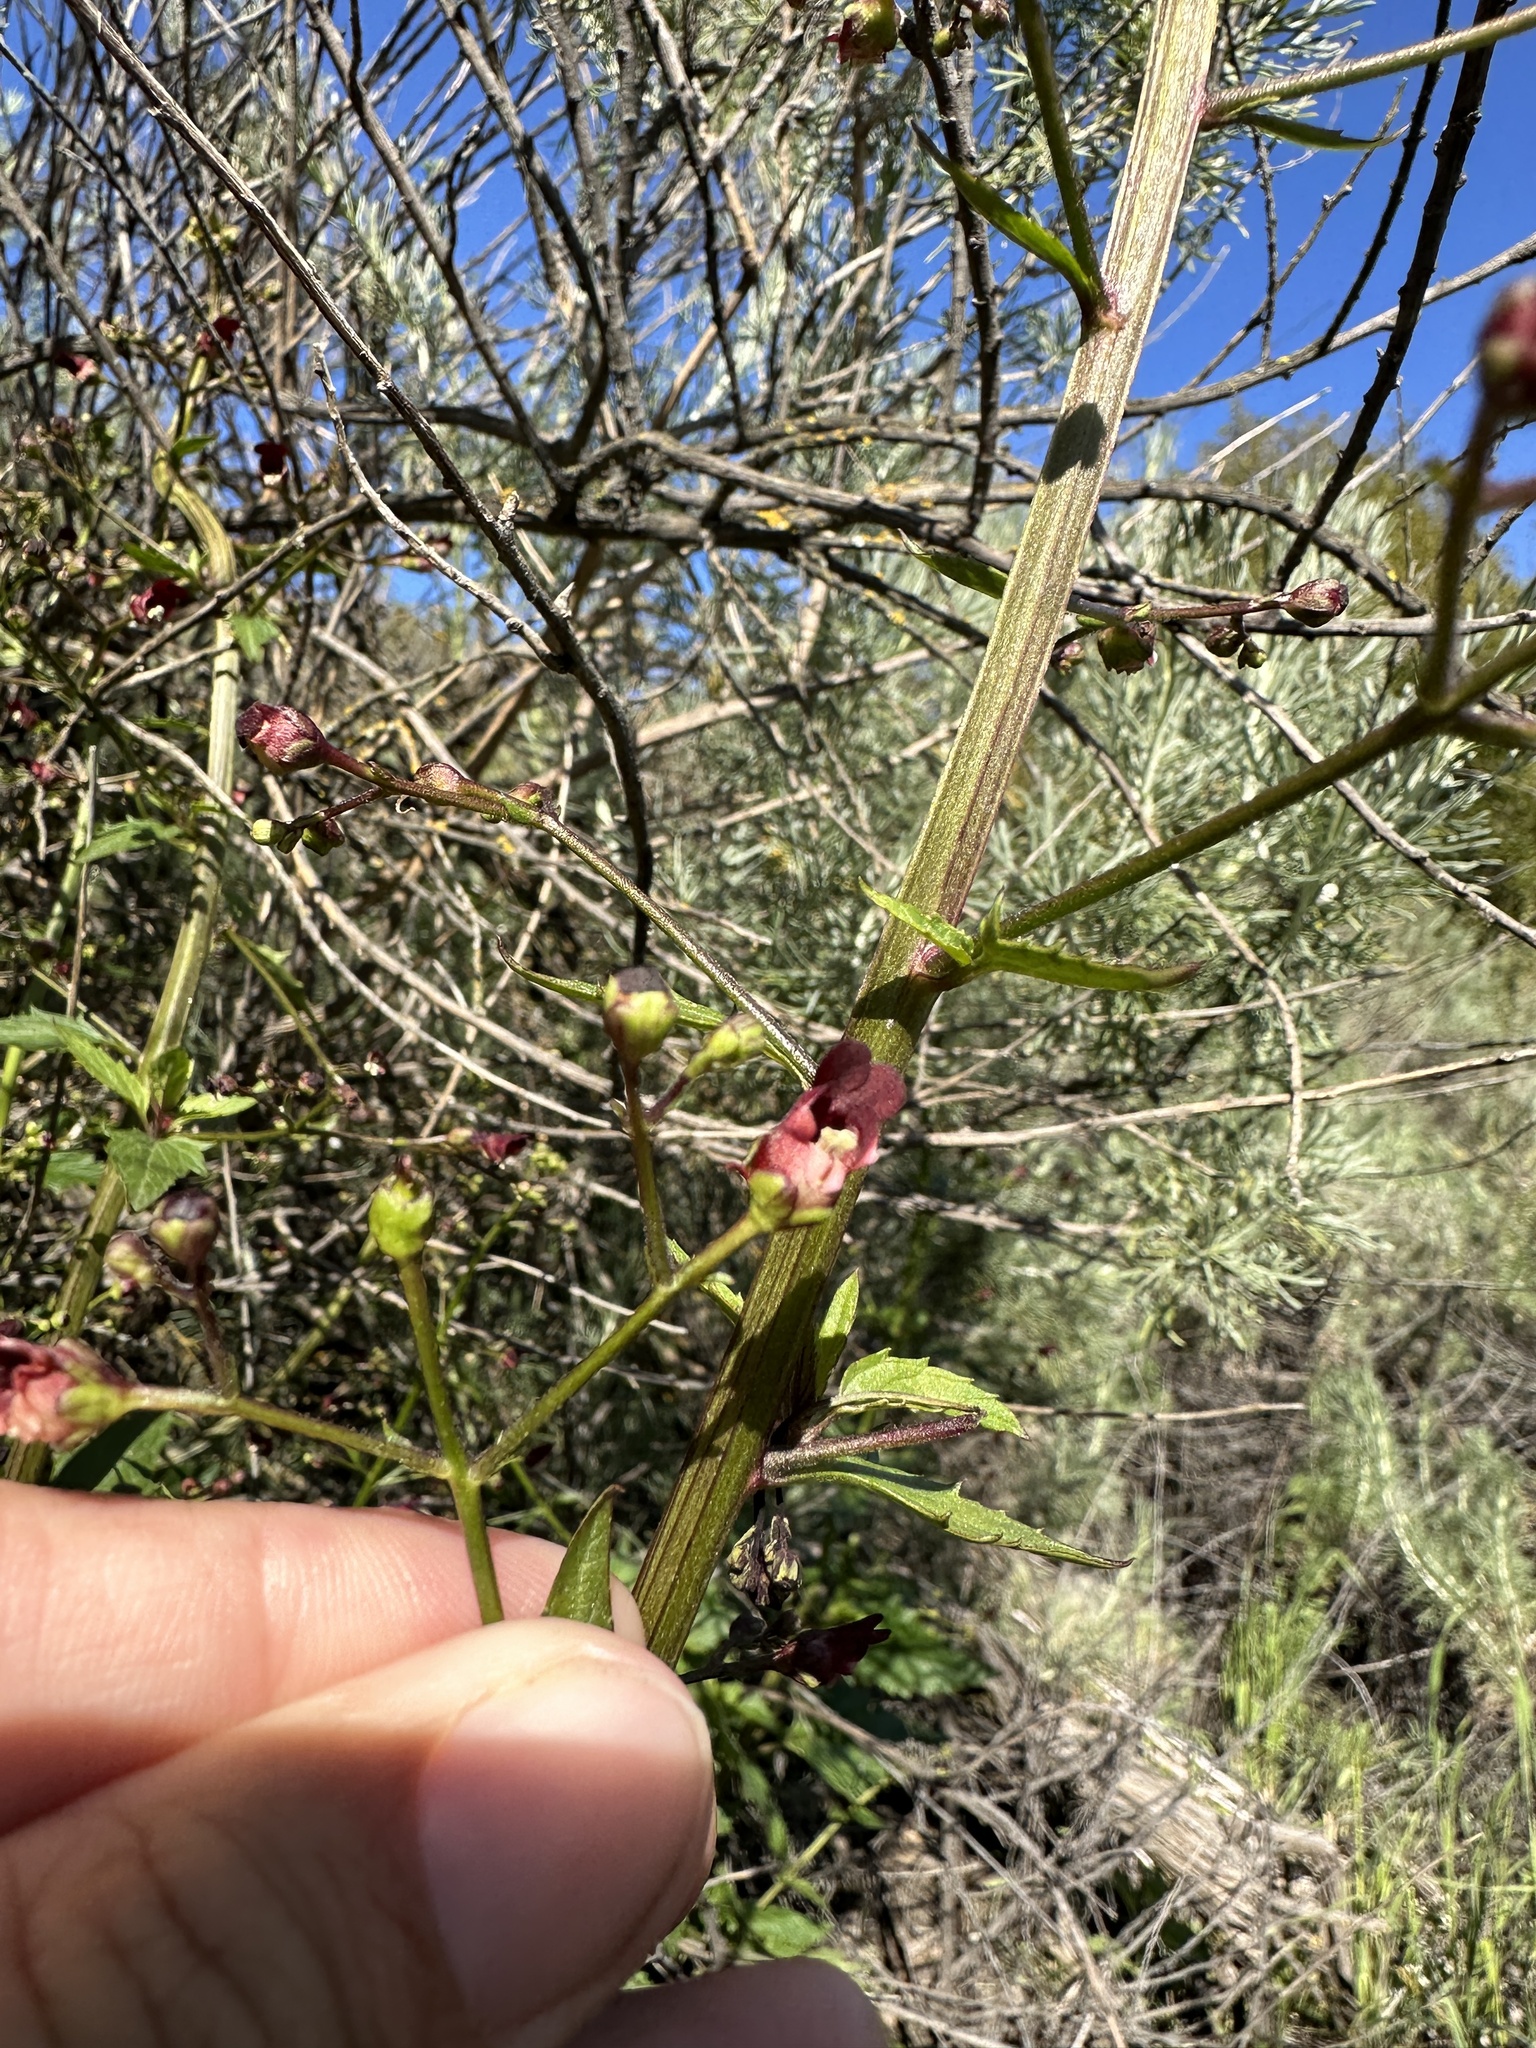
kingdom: Plantae
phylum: Tracheophyta
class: Magnoliopsida
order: Lamiales
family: Scrophulariaceae
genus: Scrophularia
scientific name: Scrophularia californica
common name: California figwort
